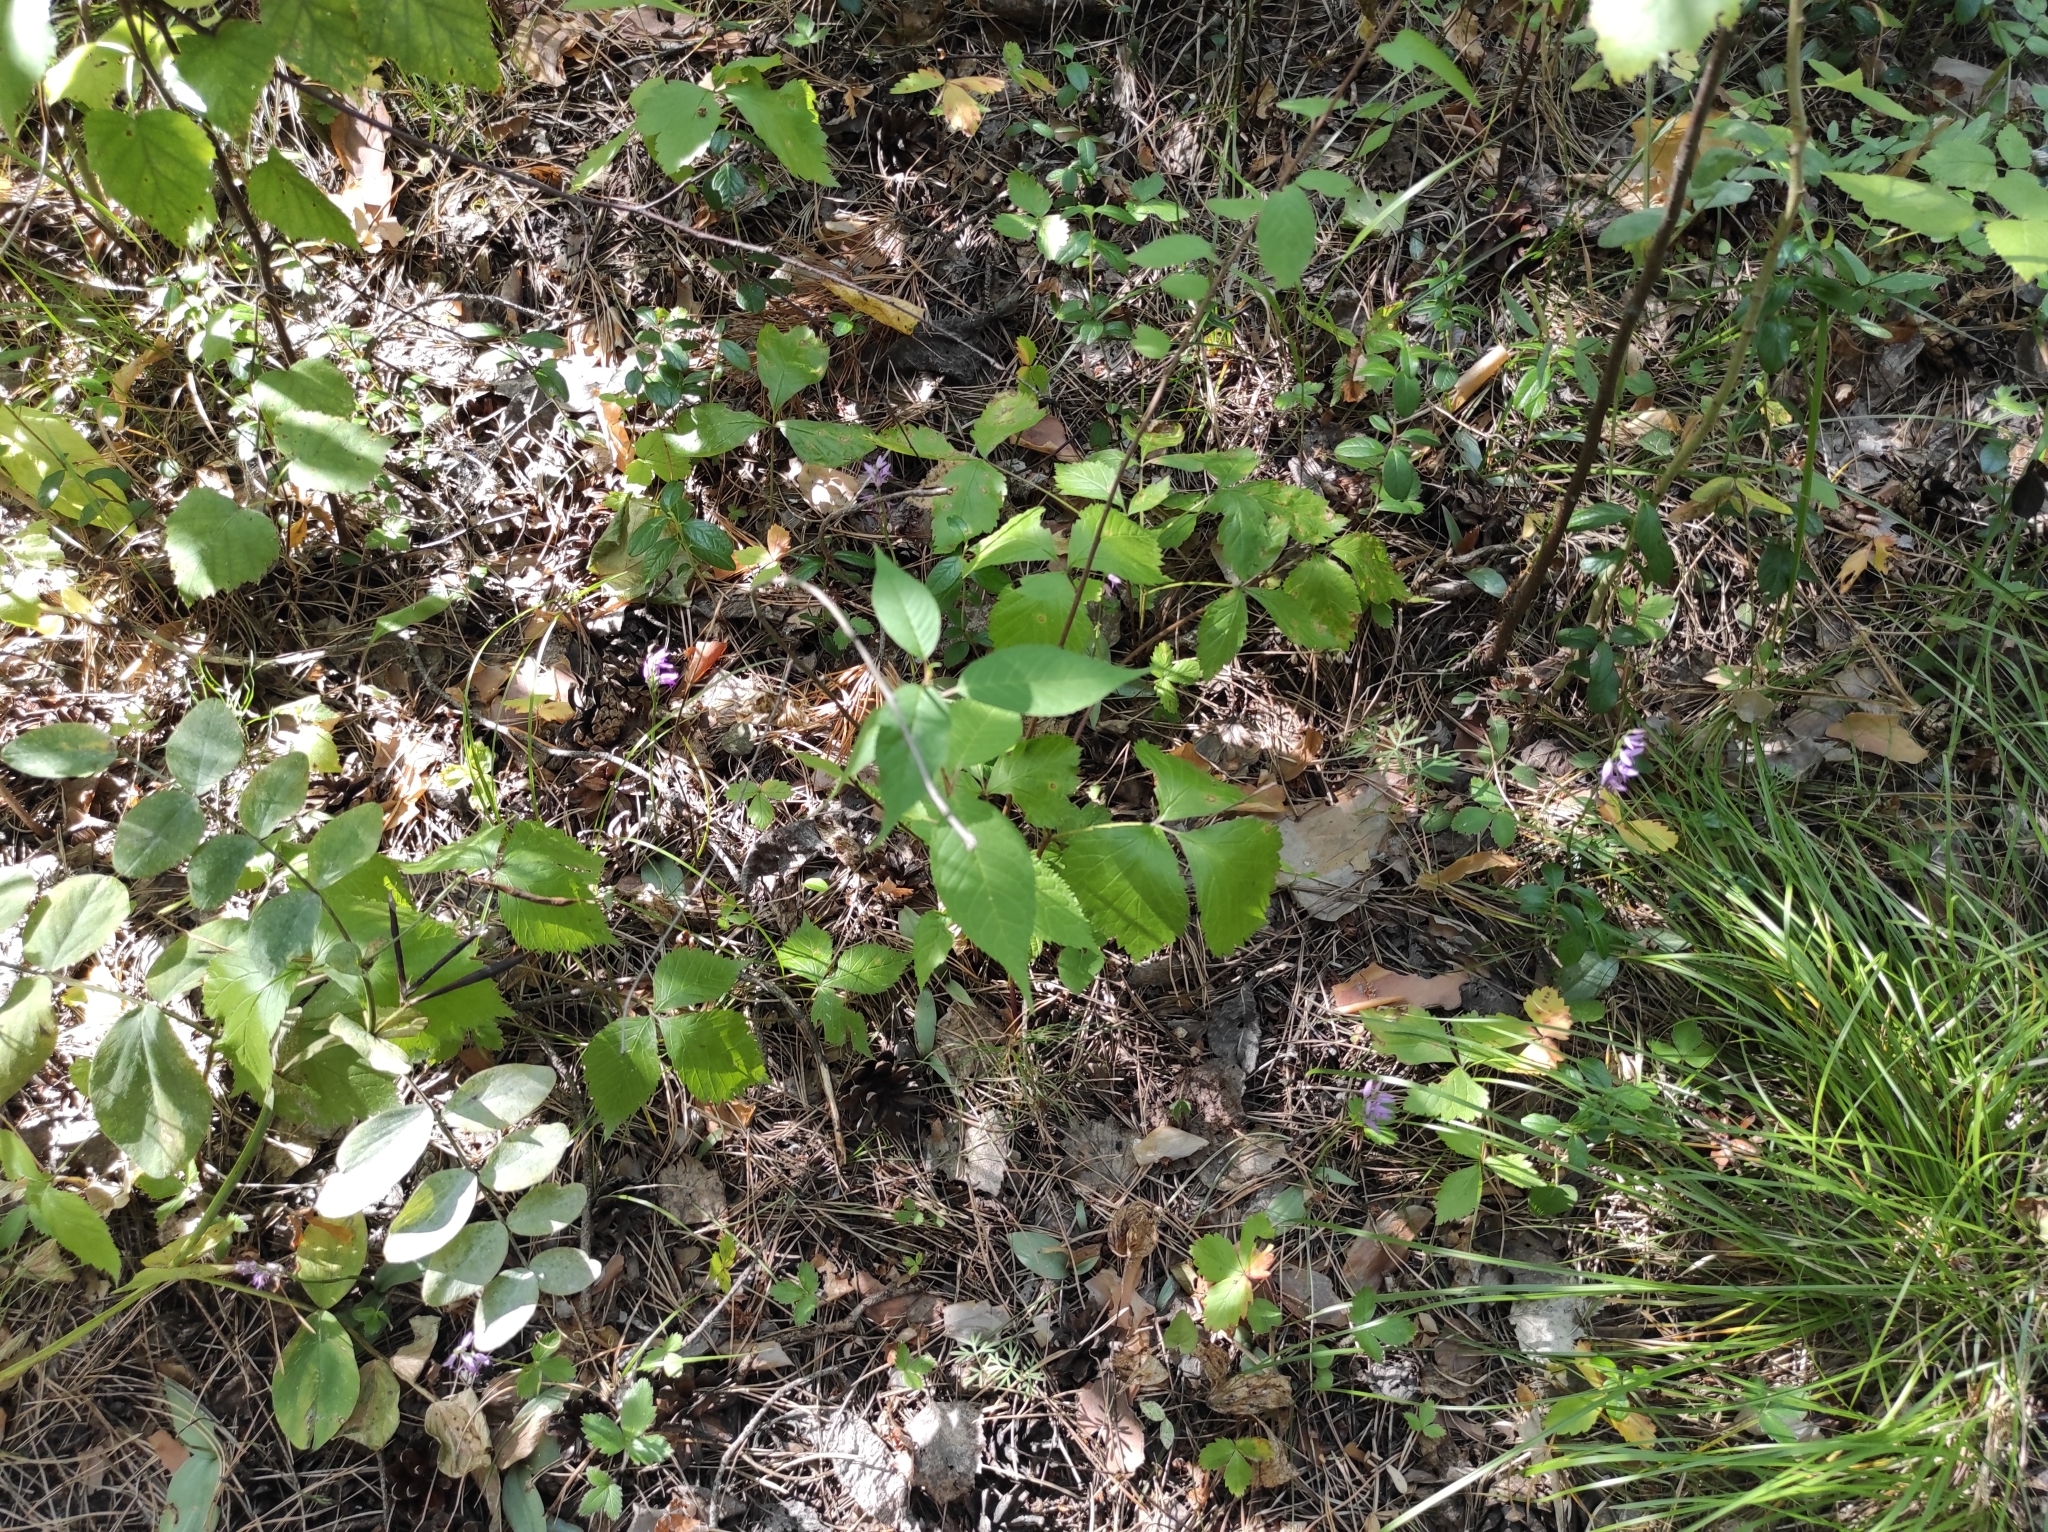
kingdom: Plantae
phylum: Tracheophyta
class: Liliopsida
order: Asparagales
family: Orchidaceae
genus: Hemipilia
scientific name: Hemipilia cucullata
